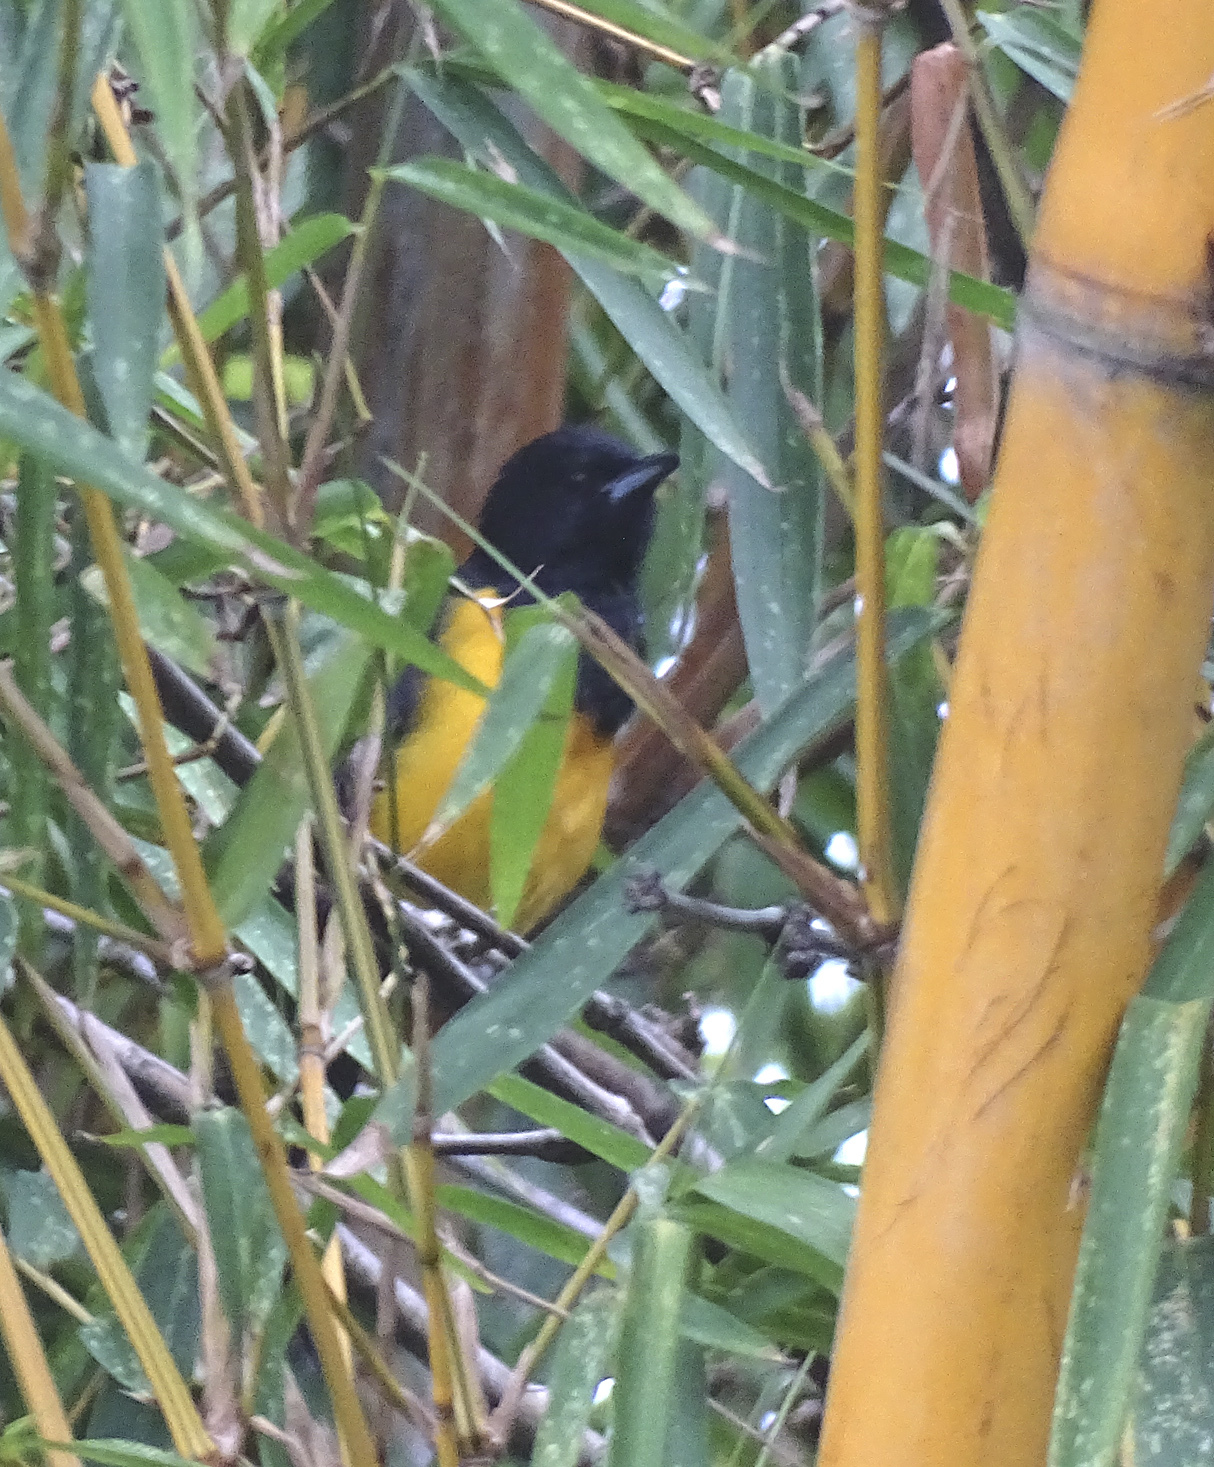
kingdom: Animalia
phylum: Chordata
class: Aves
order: Passeriformes
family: Icteridae
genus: Icterus
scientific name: Icterus wagleri
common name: Black-vented oriole
